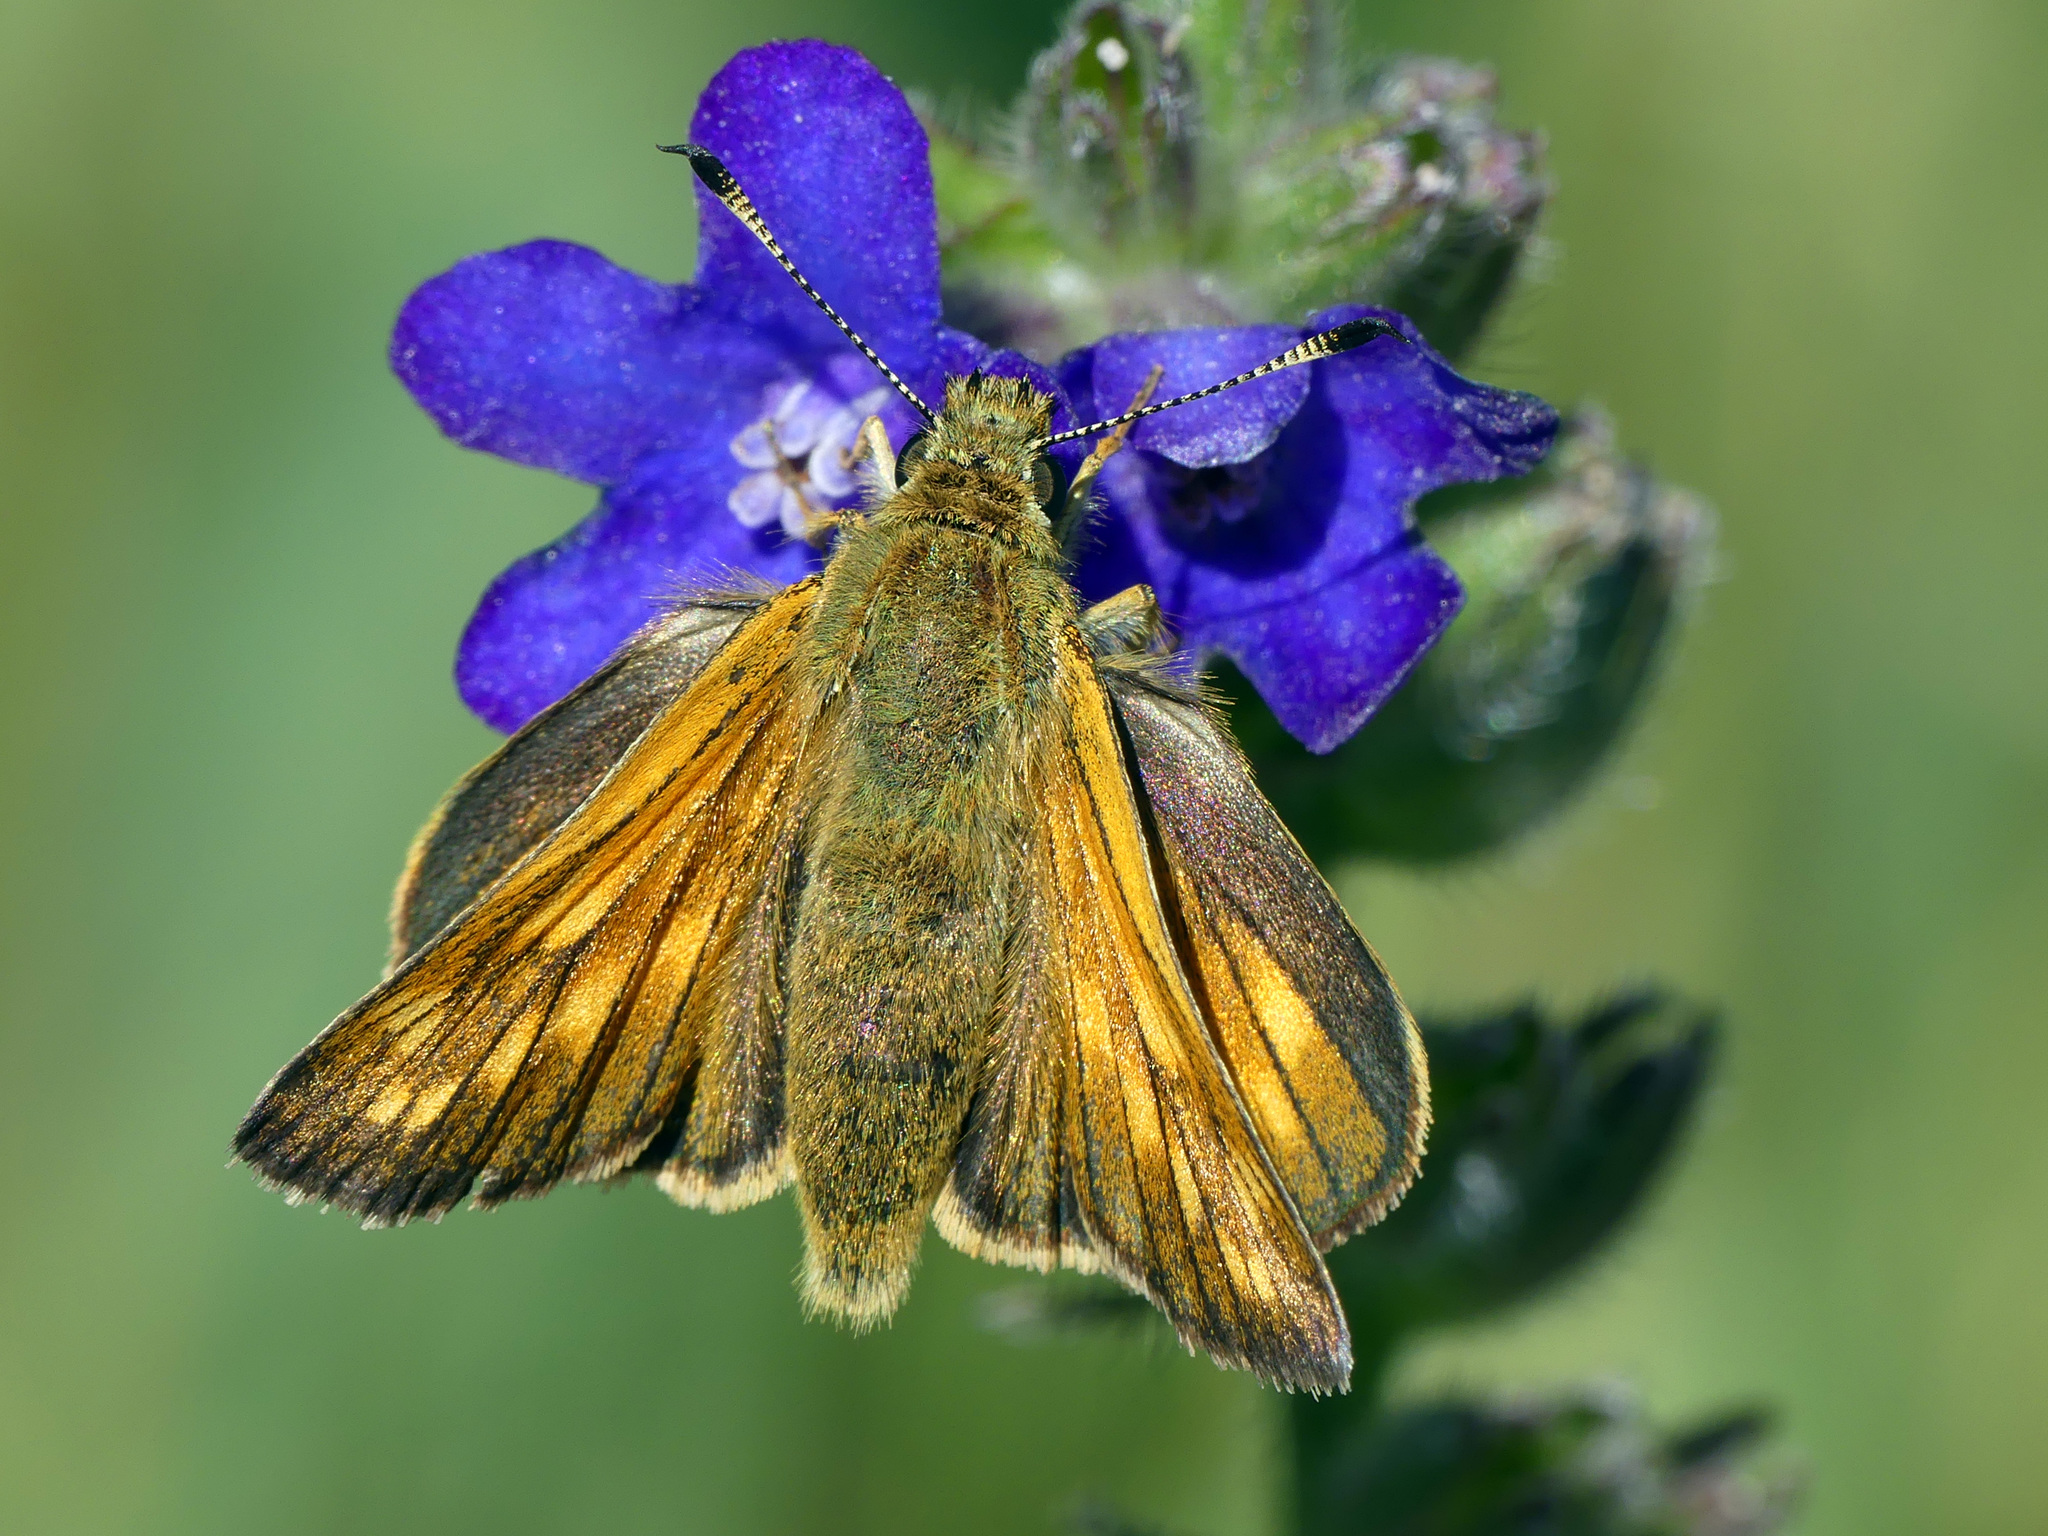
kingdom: Animalia
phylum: Arthropoda
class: Insecta
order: Lepidoptera
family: Hesperiidae
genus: Ochlodes
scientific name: Ochlodes venata
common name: Large skipper
